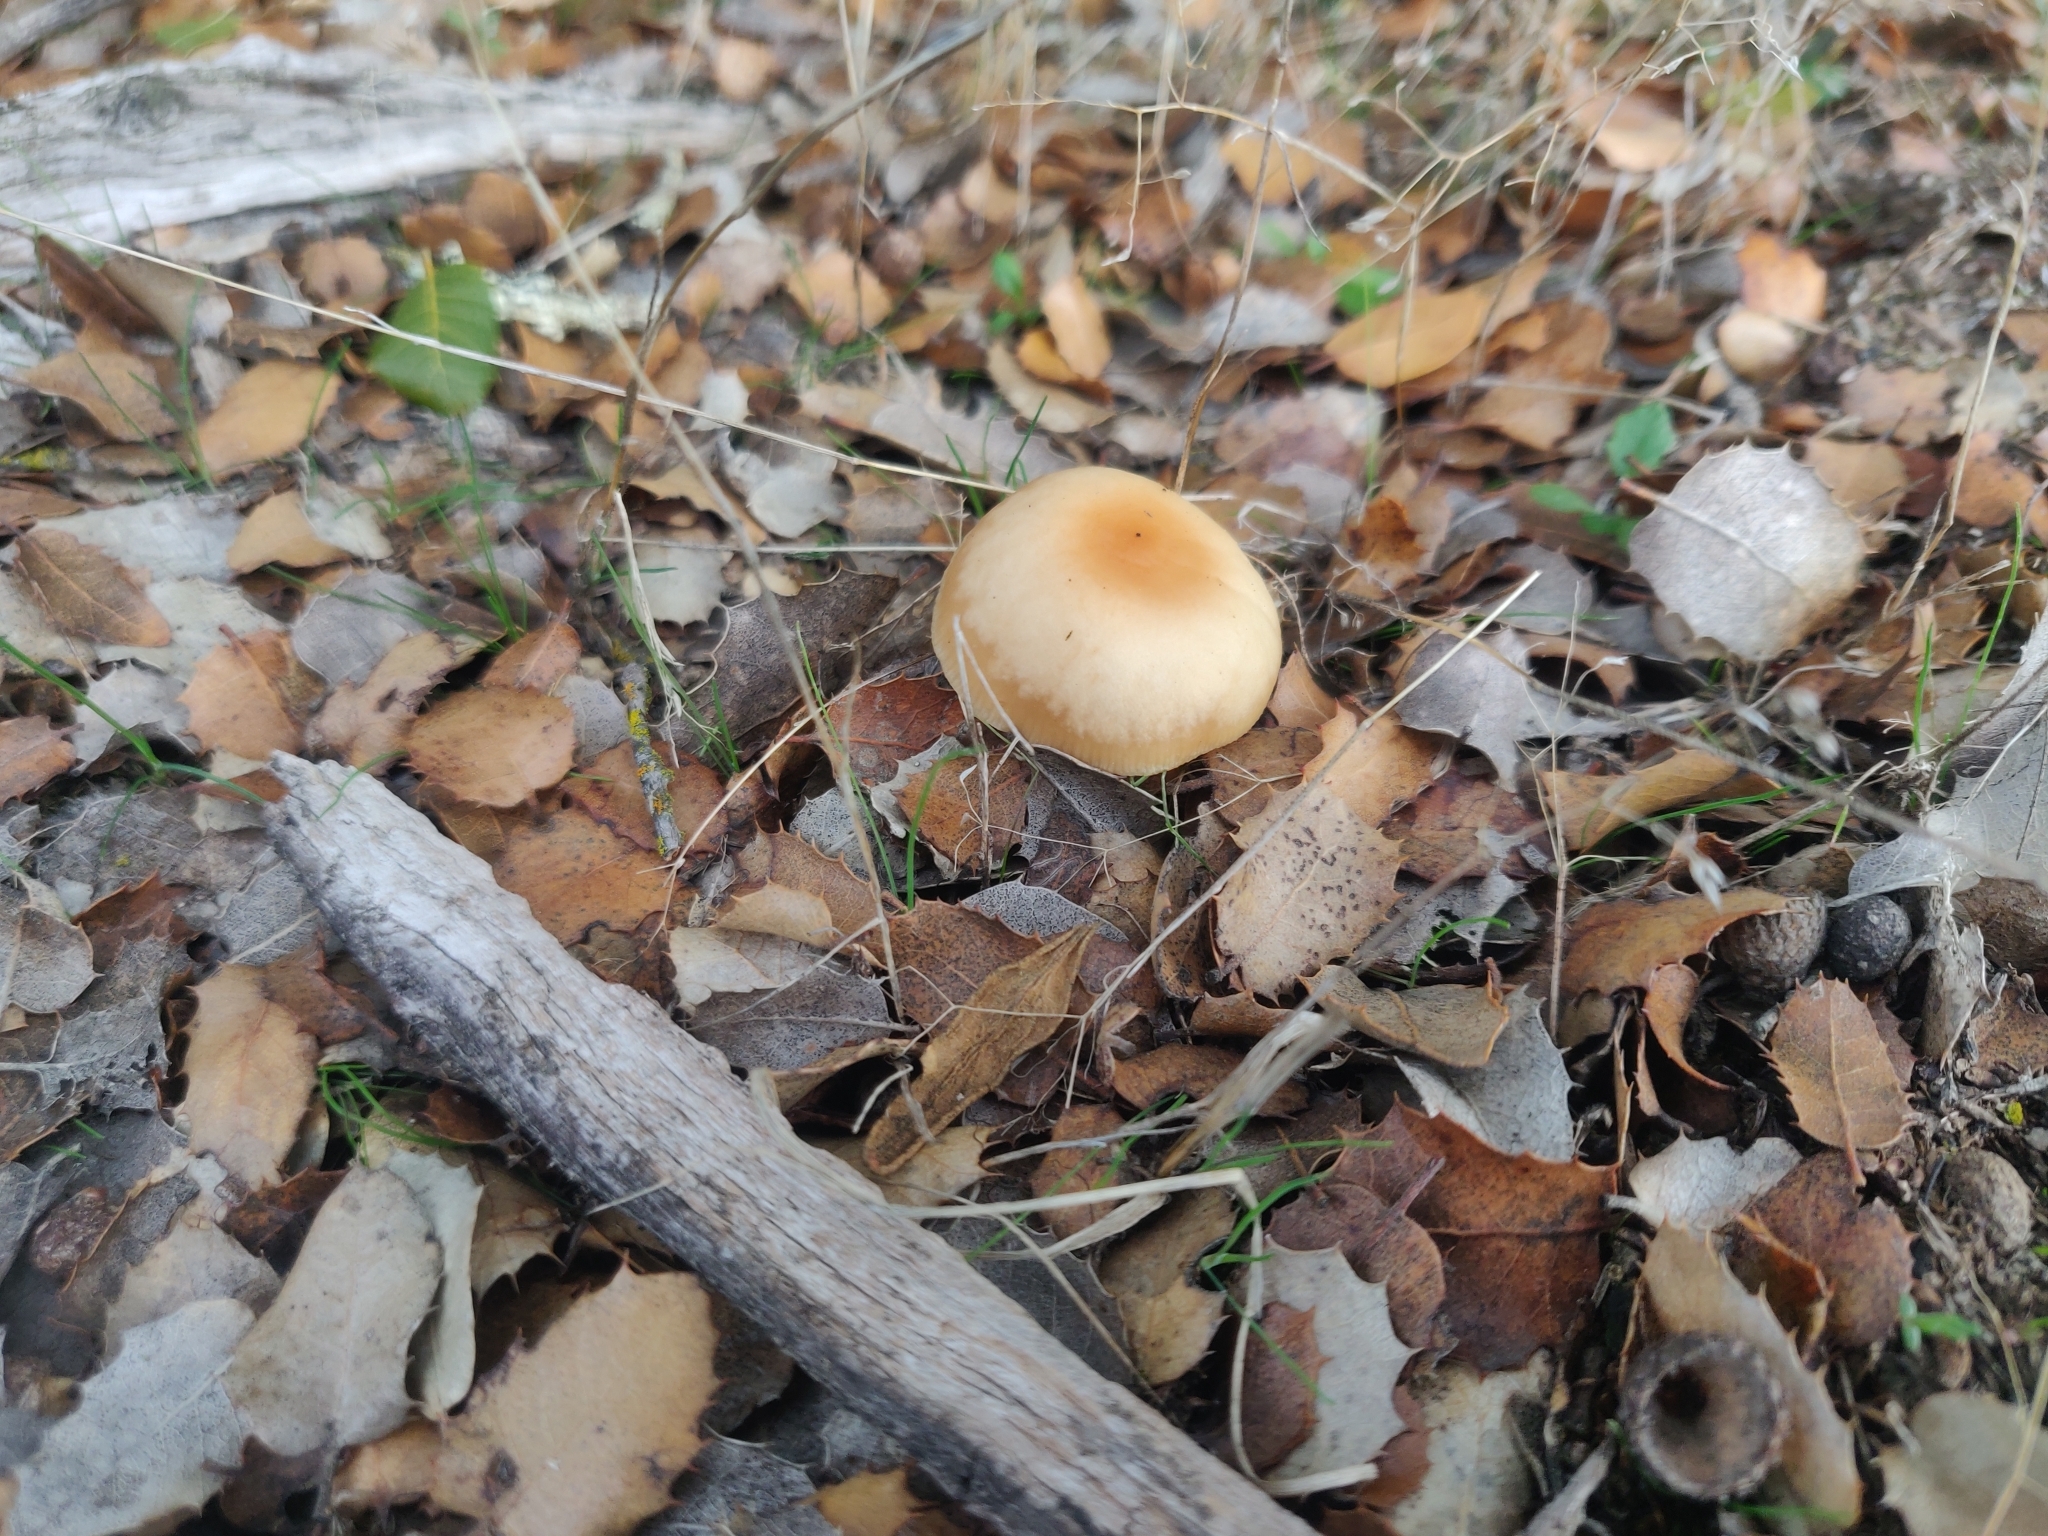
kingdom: Fungi
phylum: Basidiomycota
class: Agaricomycetes
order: Agaricales
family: Omphalotaceae
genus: Gymnopus
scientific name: Gymnopus dryophilus
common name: Penny top
